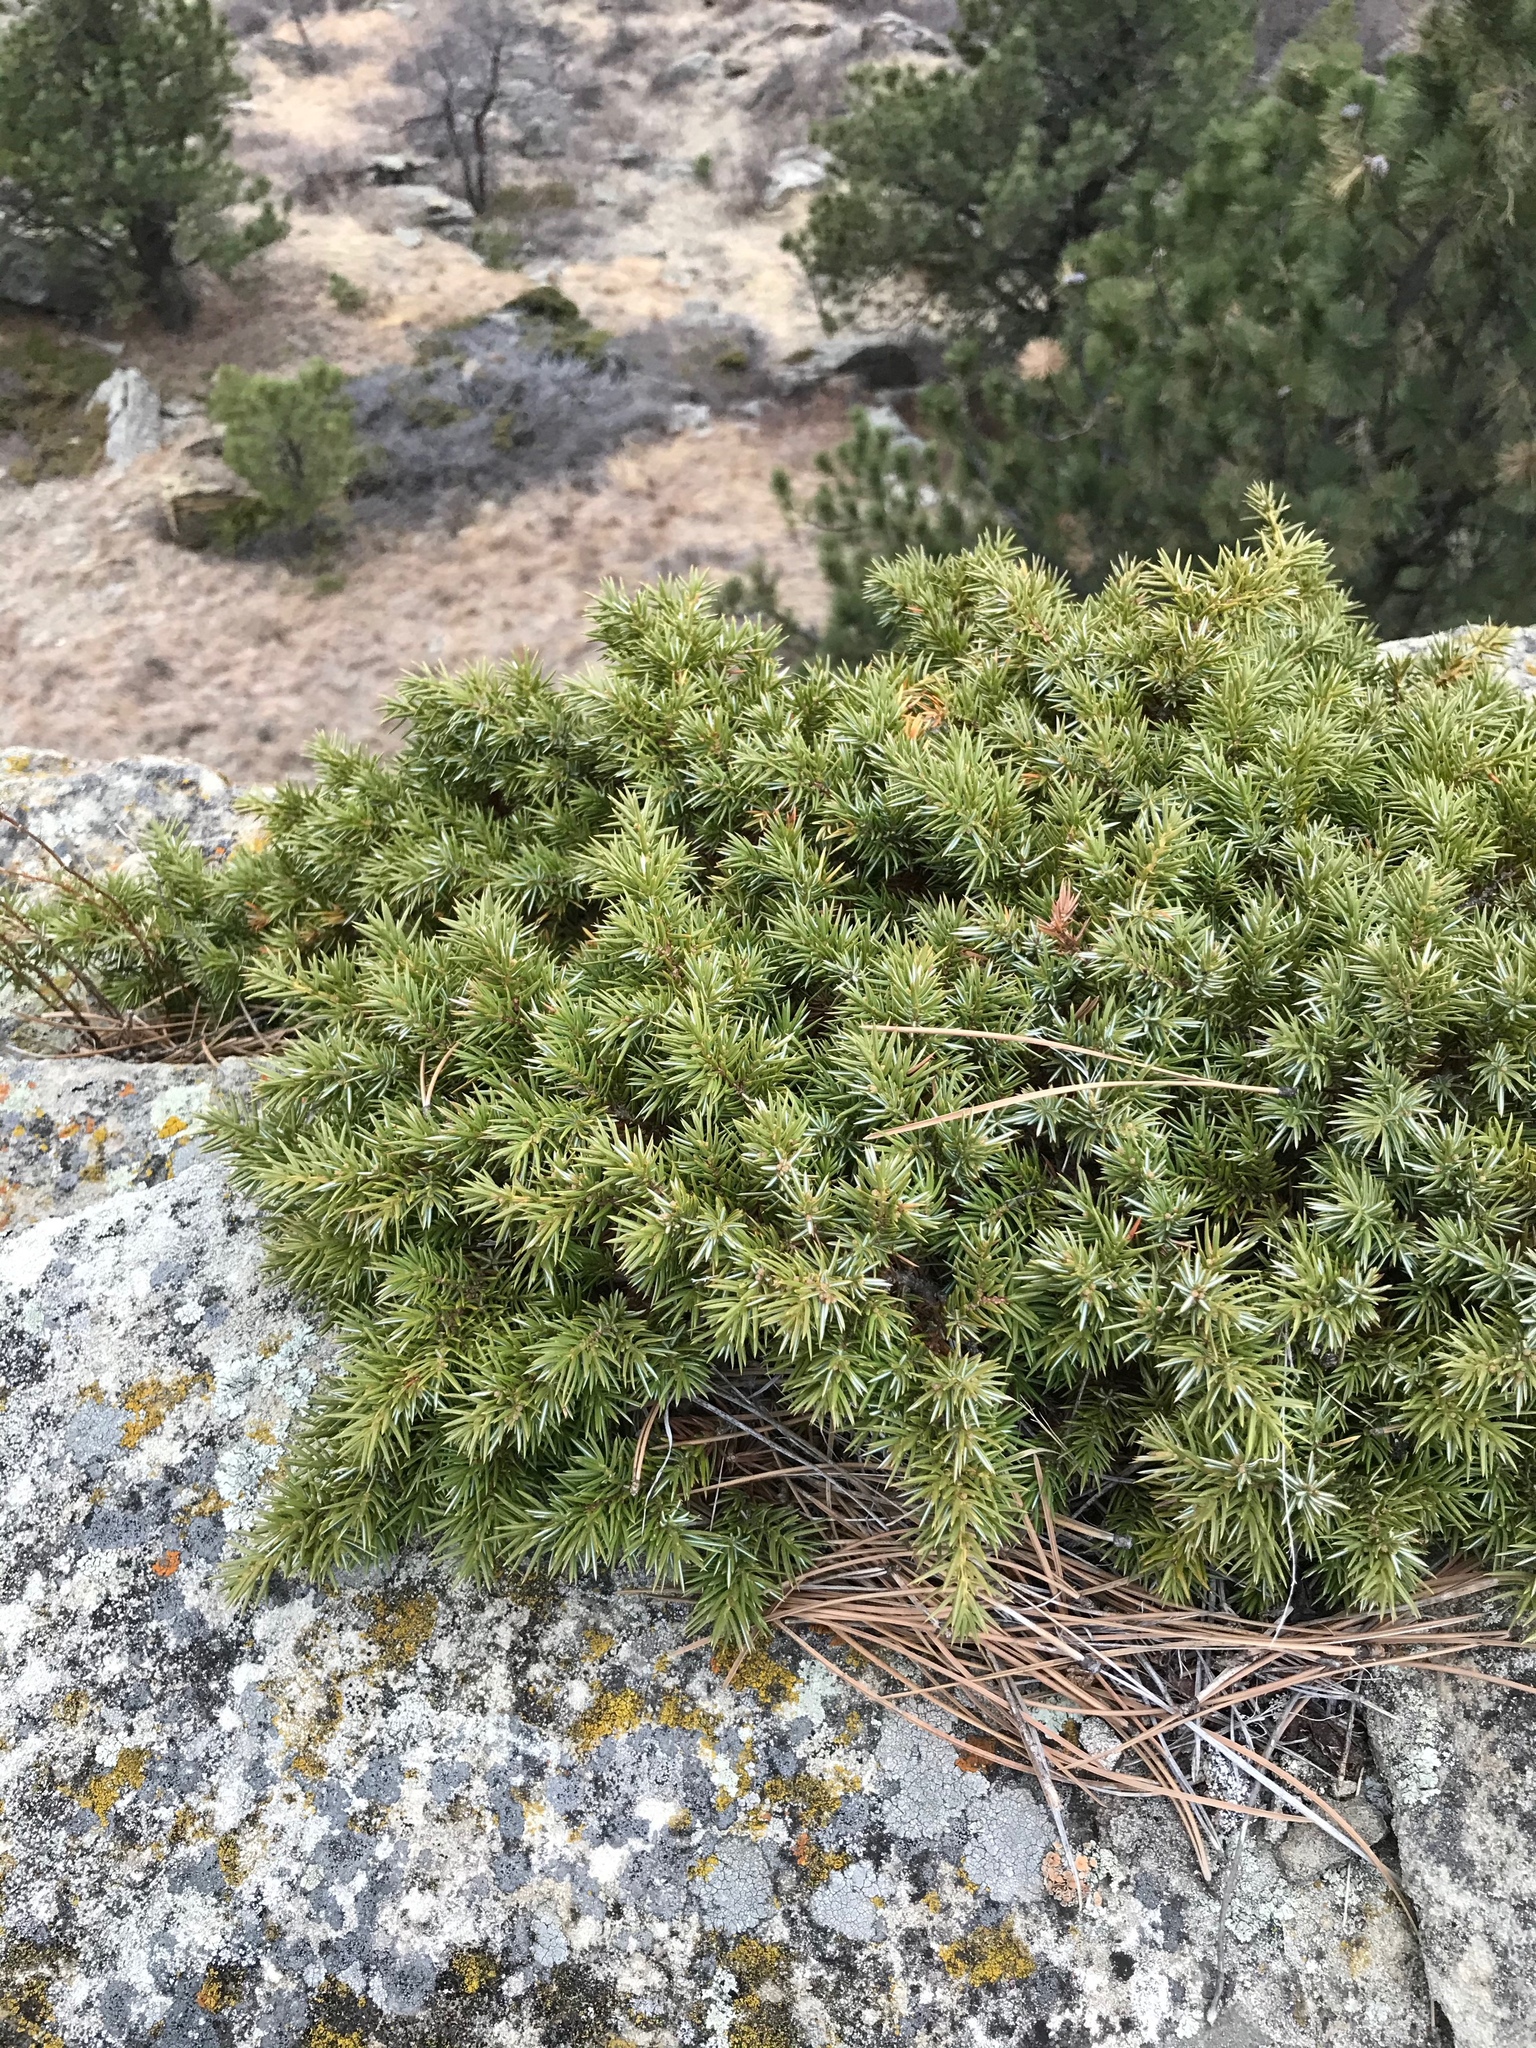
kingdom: Plantae
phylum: Tracheophyta
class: Pinopsida
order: Pinales
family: Cupressaceae
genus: Juniperus
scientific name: Juniperus communis
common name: Common juniper
